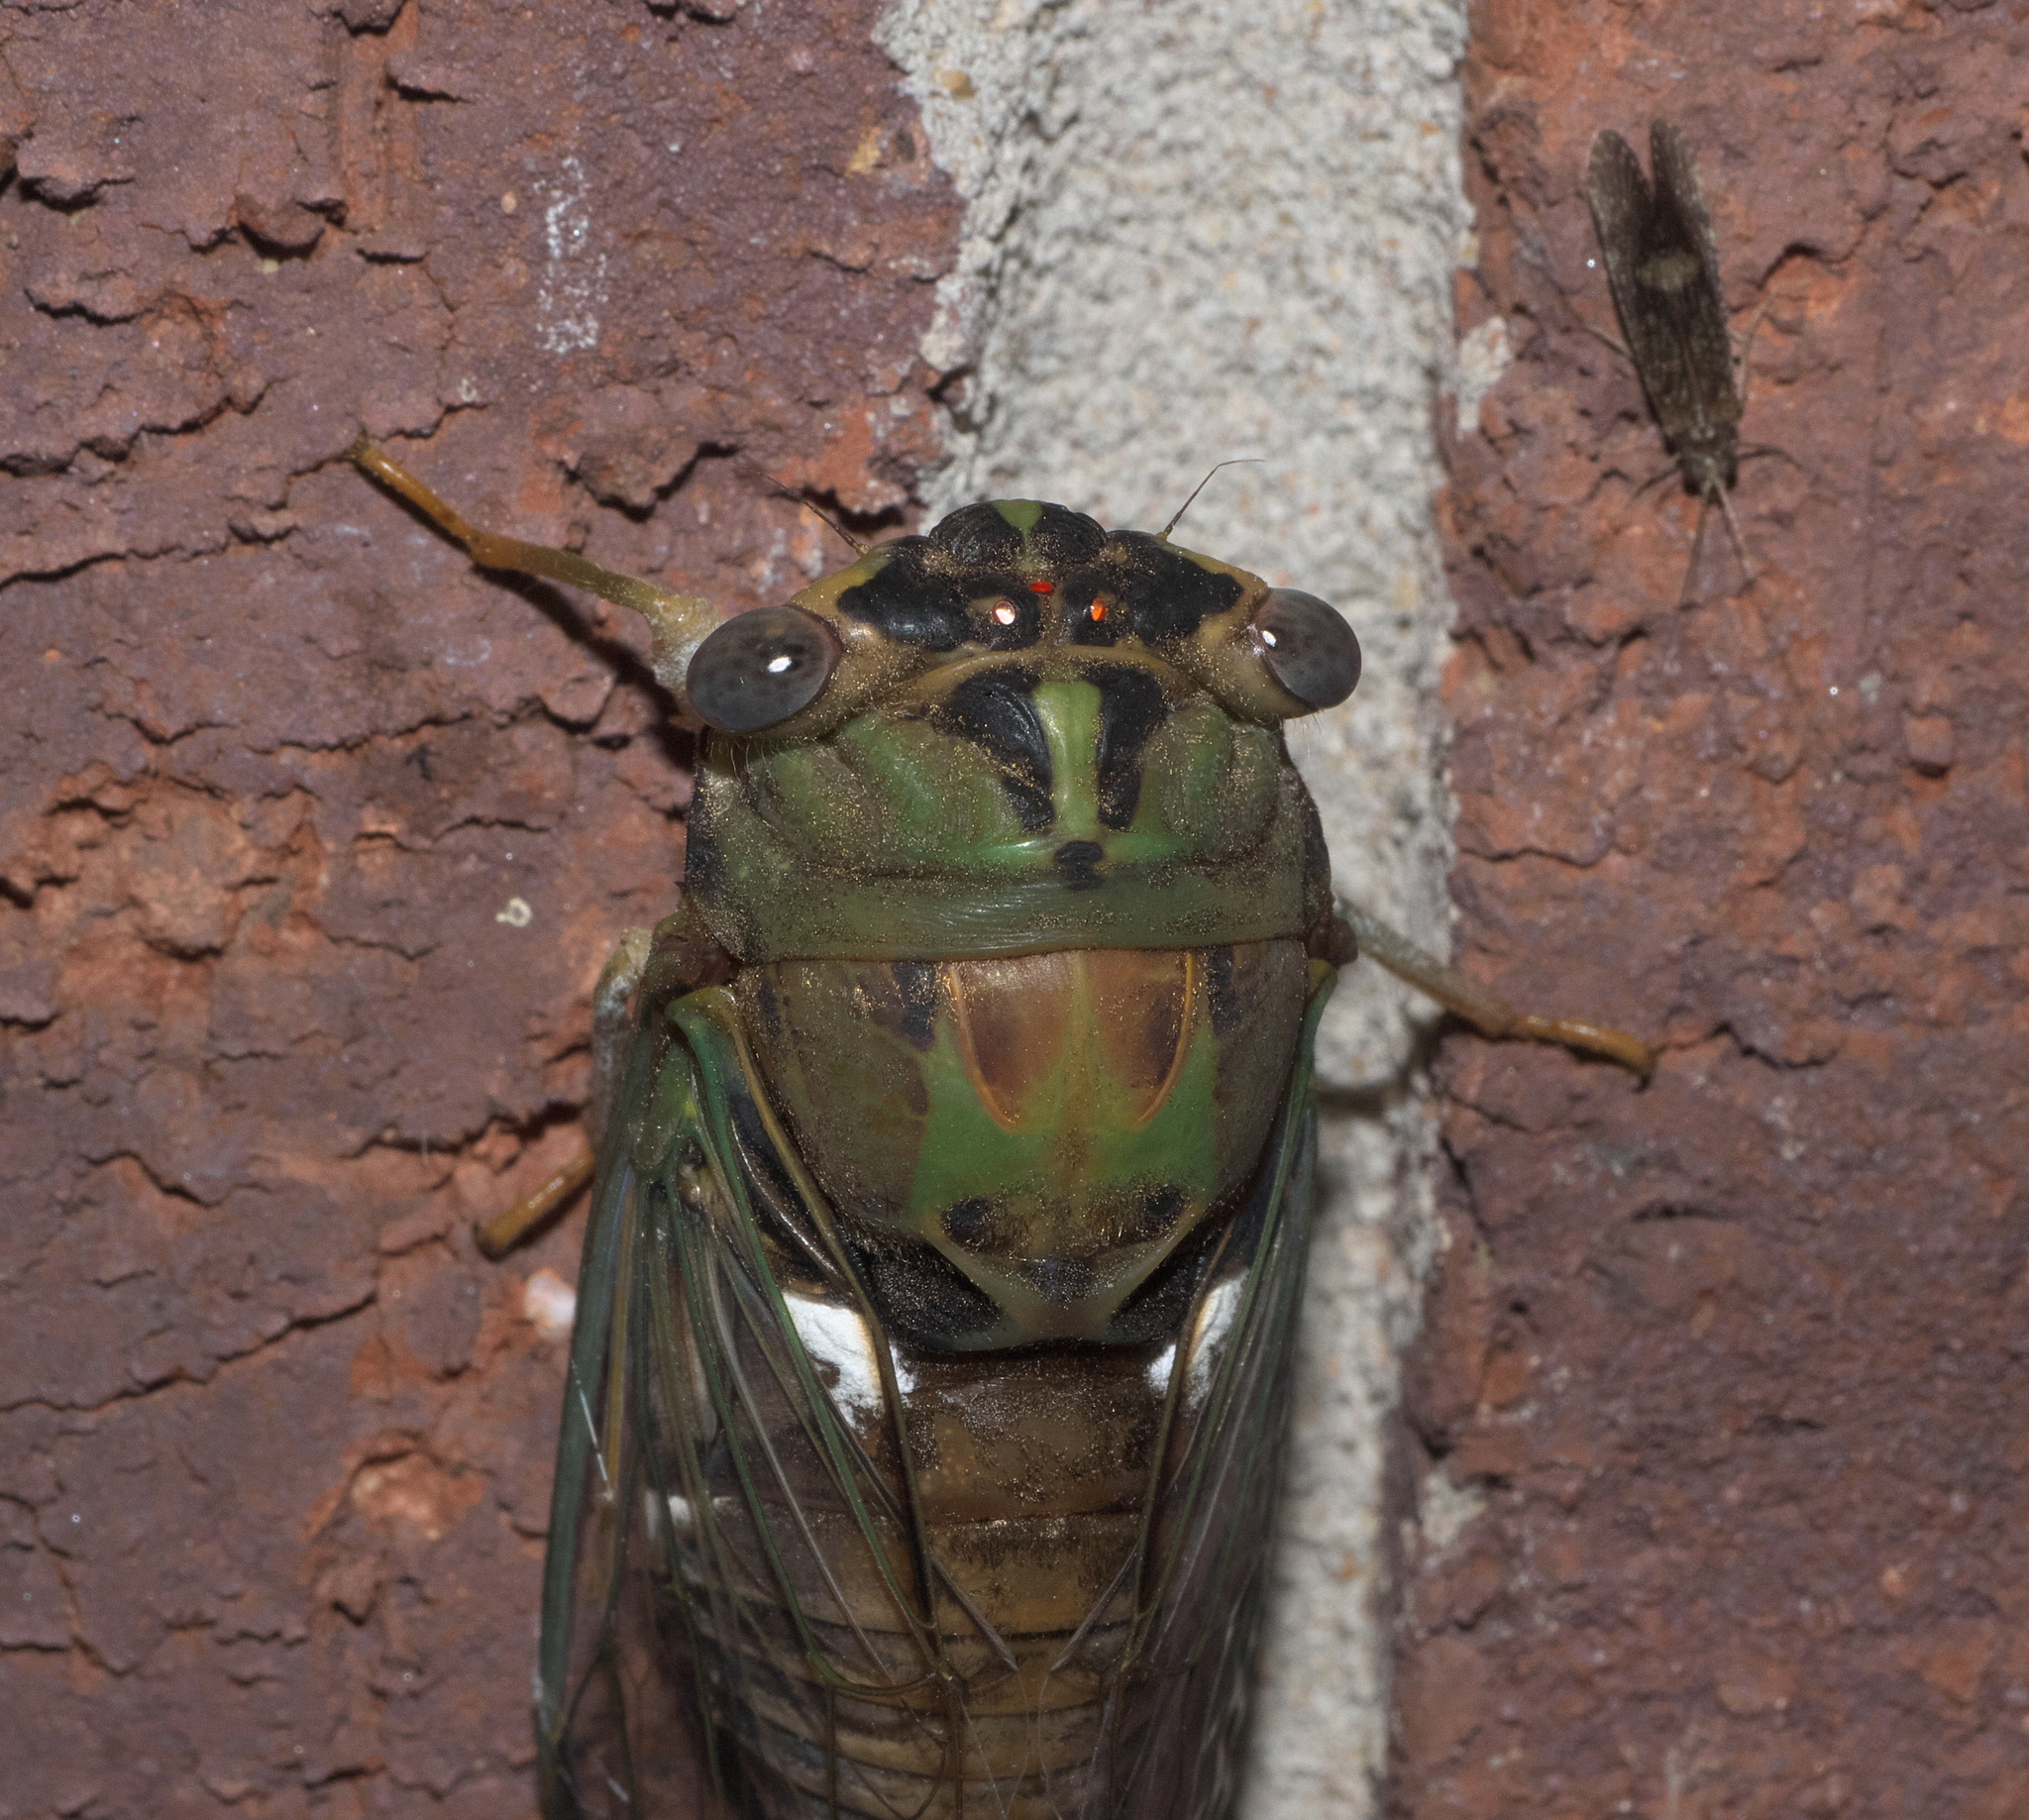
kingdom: Animalia
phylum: Arthropoda
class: Insecta
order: Hemiptera
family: Cicadidae
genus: Neotibicen
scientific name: Neotibicen pruinosus
